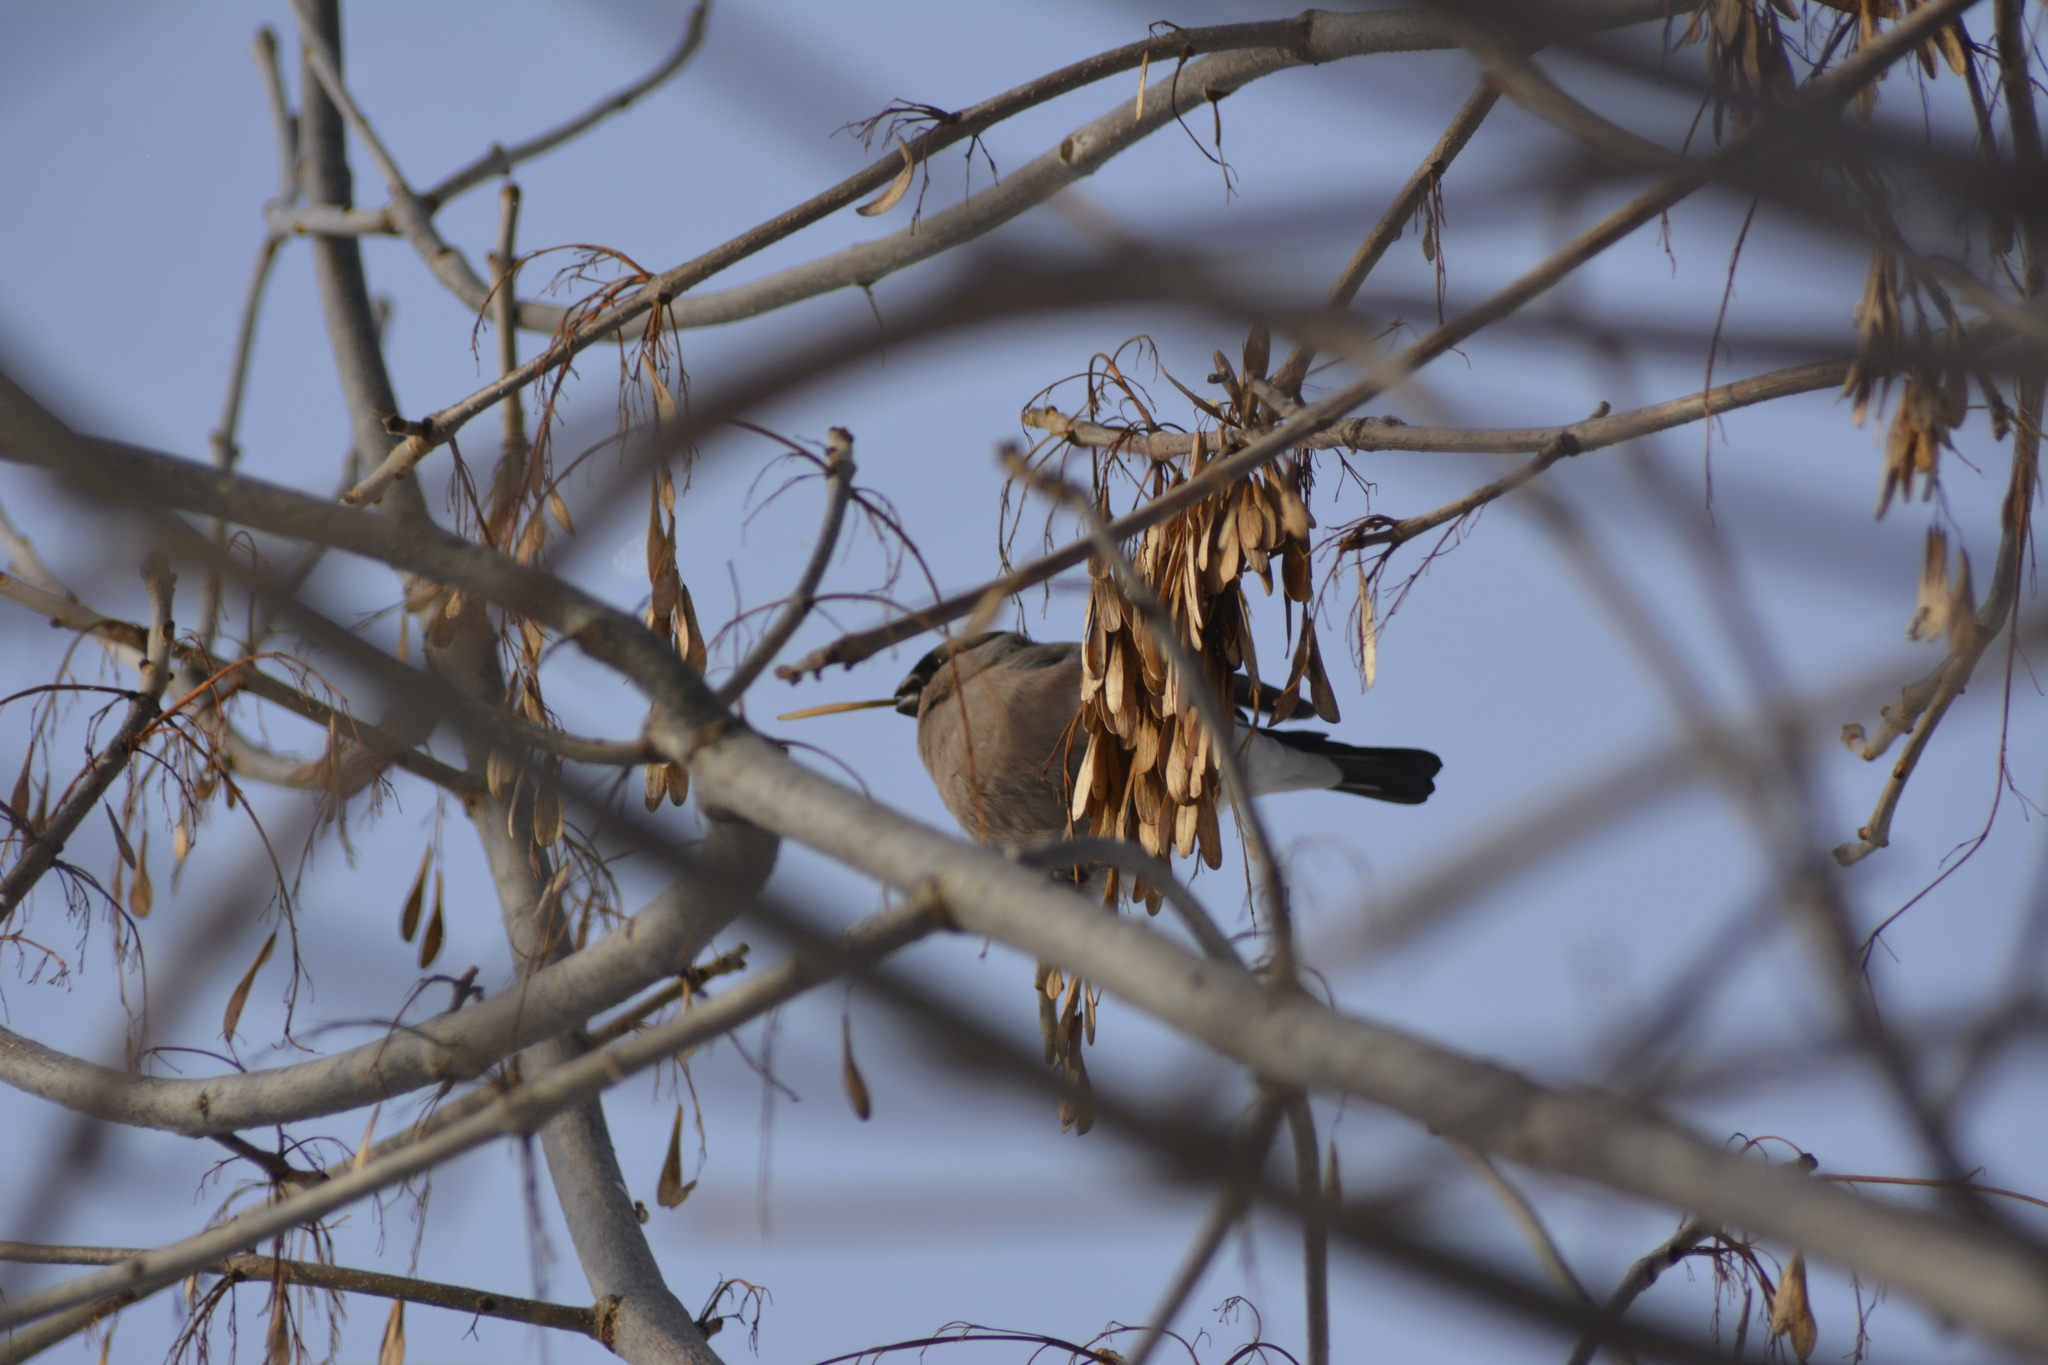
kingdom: Animalia
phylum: Chordata
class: Aves
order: Passeriformes
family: Fringillidae
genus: Pyrrhula
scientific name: Pyrrhula pyrrhula
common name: Eurasian bullfinch
